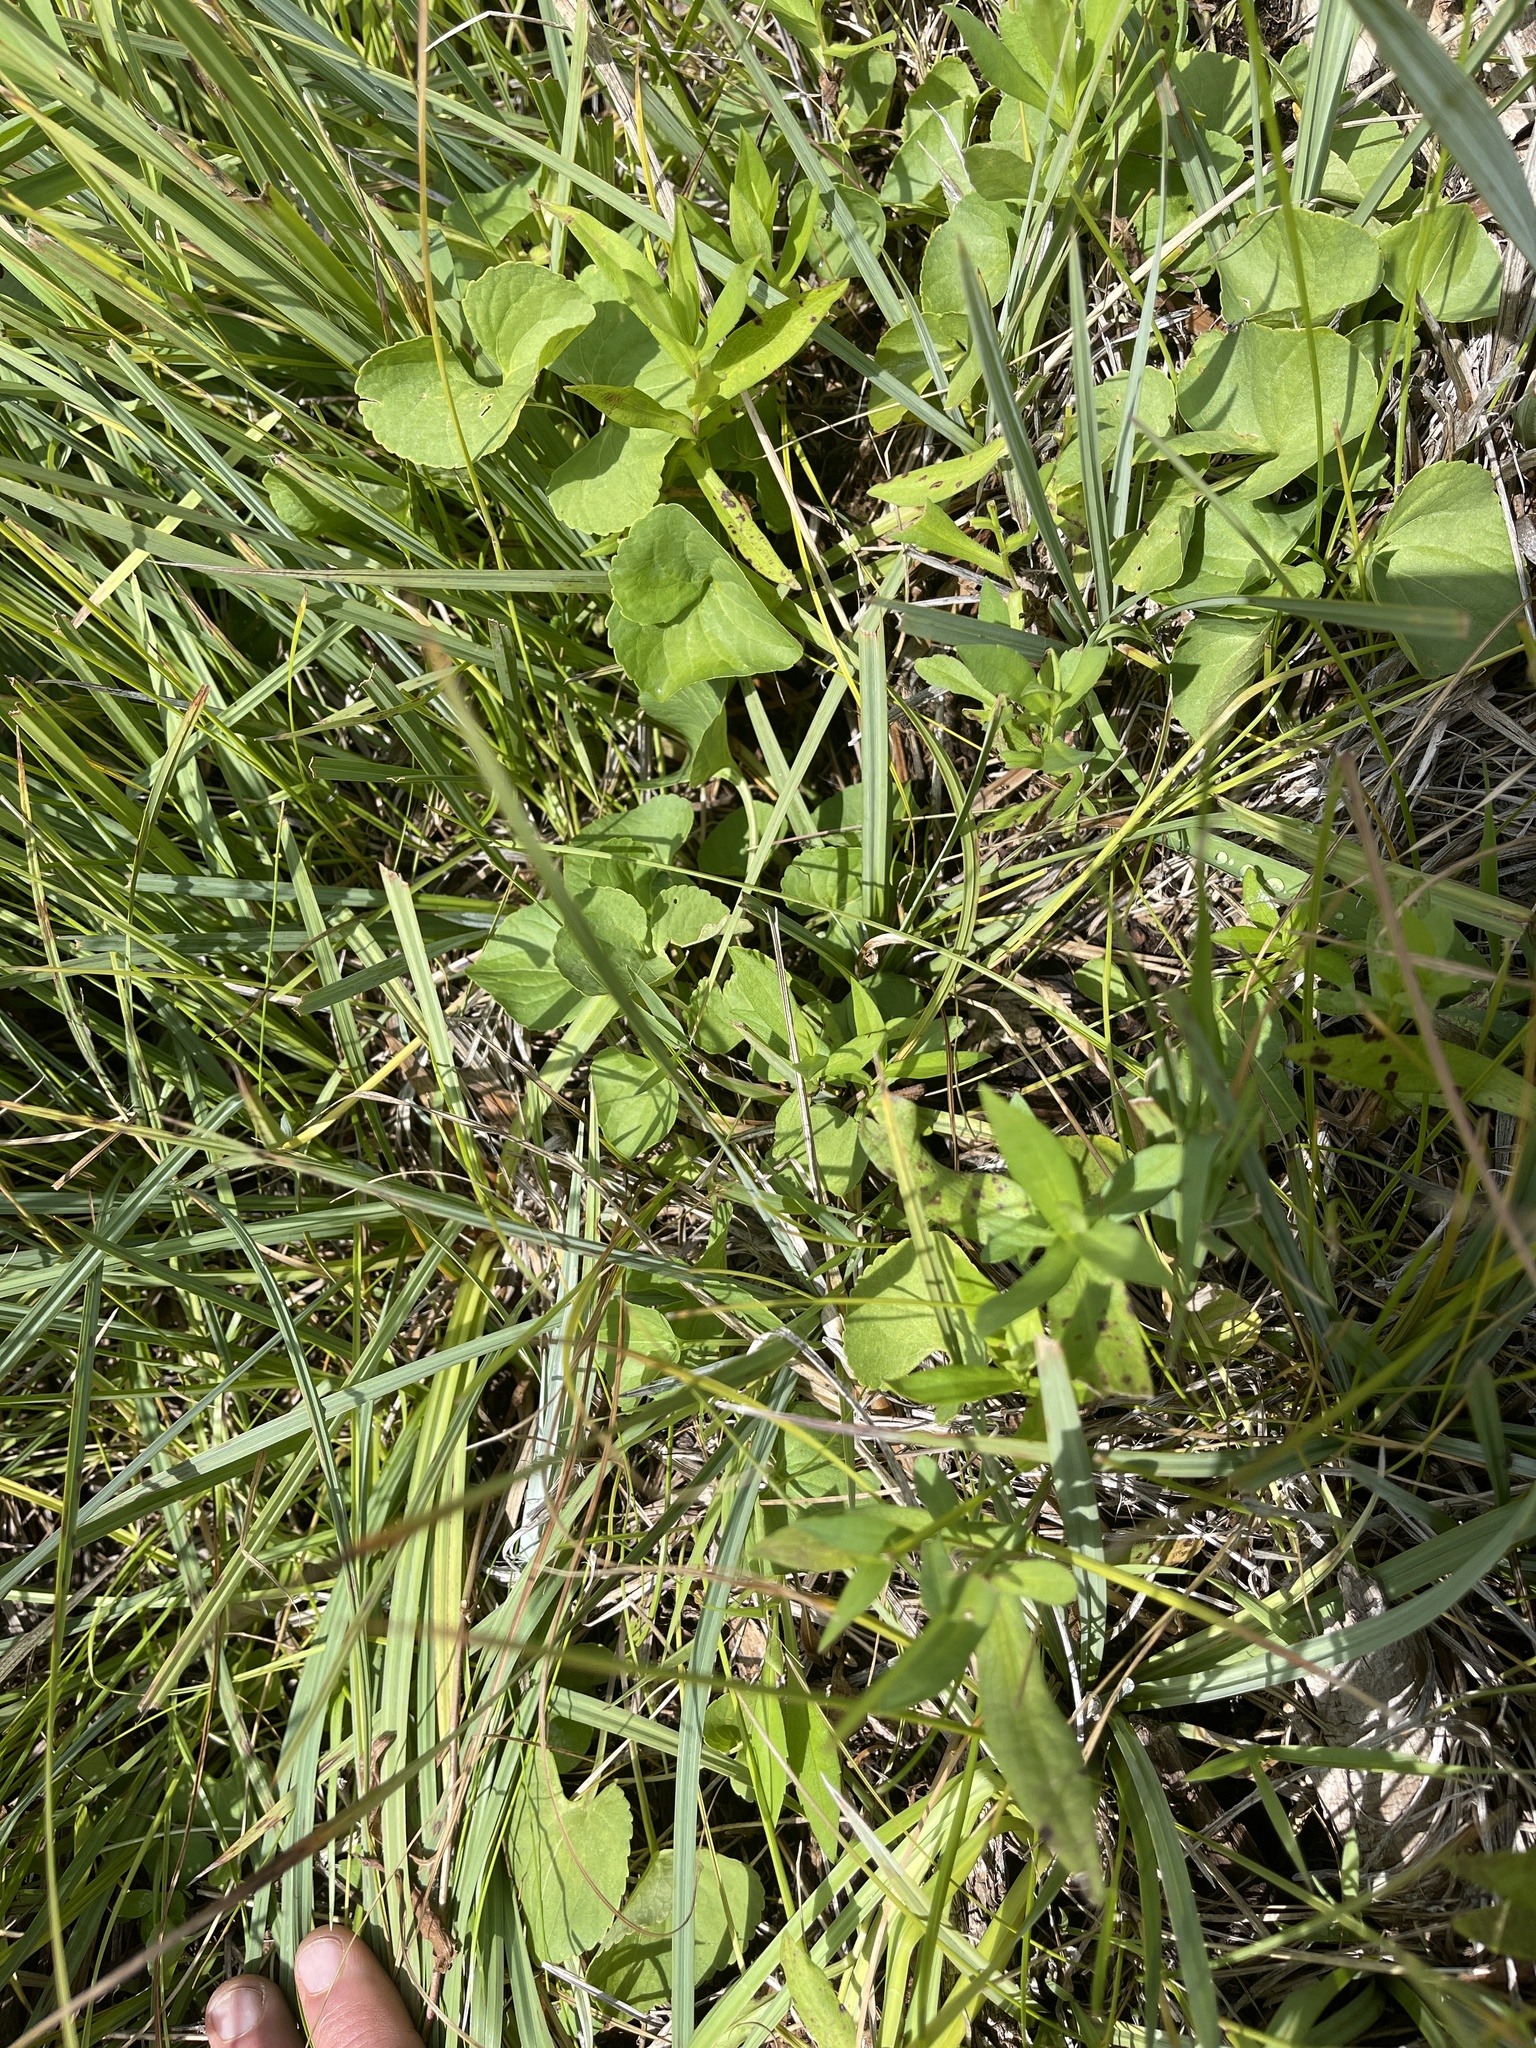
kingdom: Plantae
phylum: Tracheophyta
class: Magnoliopsida
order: Malpighiales
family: Violaceae
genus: Viola
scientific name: Viola nephrophylla
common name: Blue meadow violet
